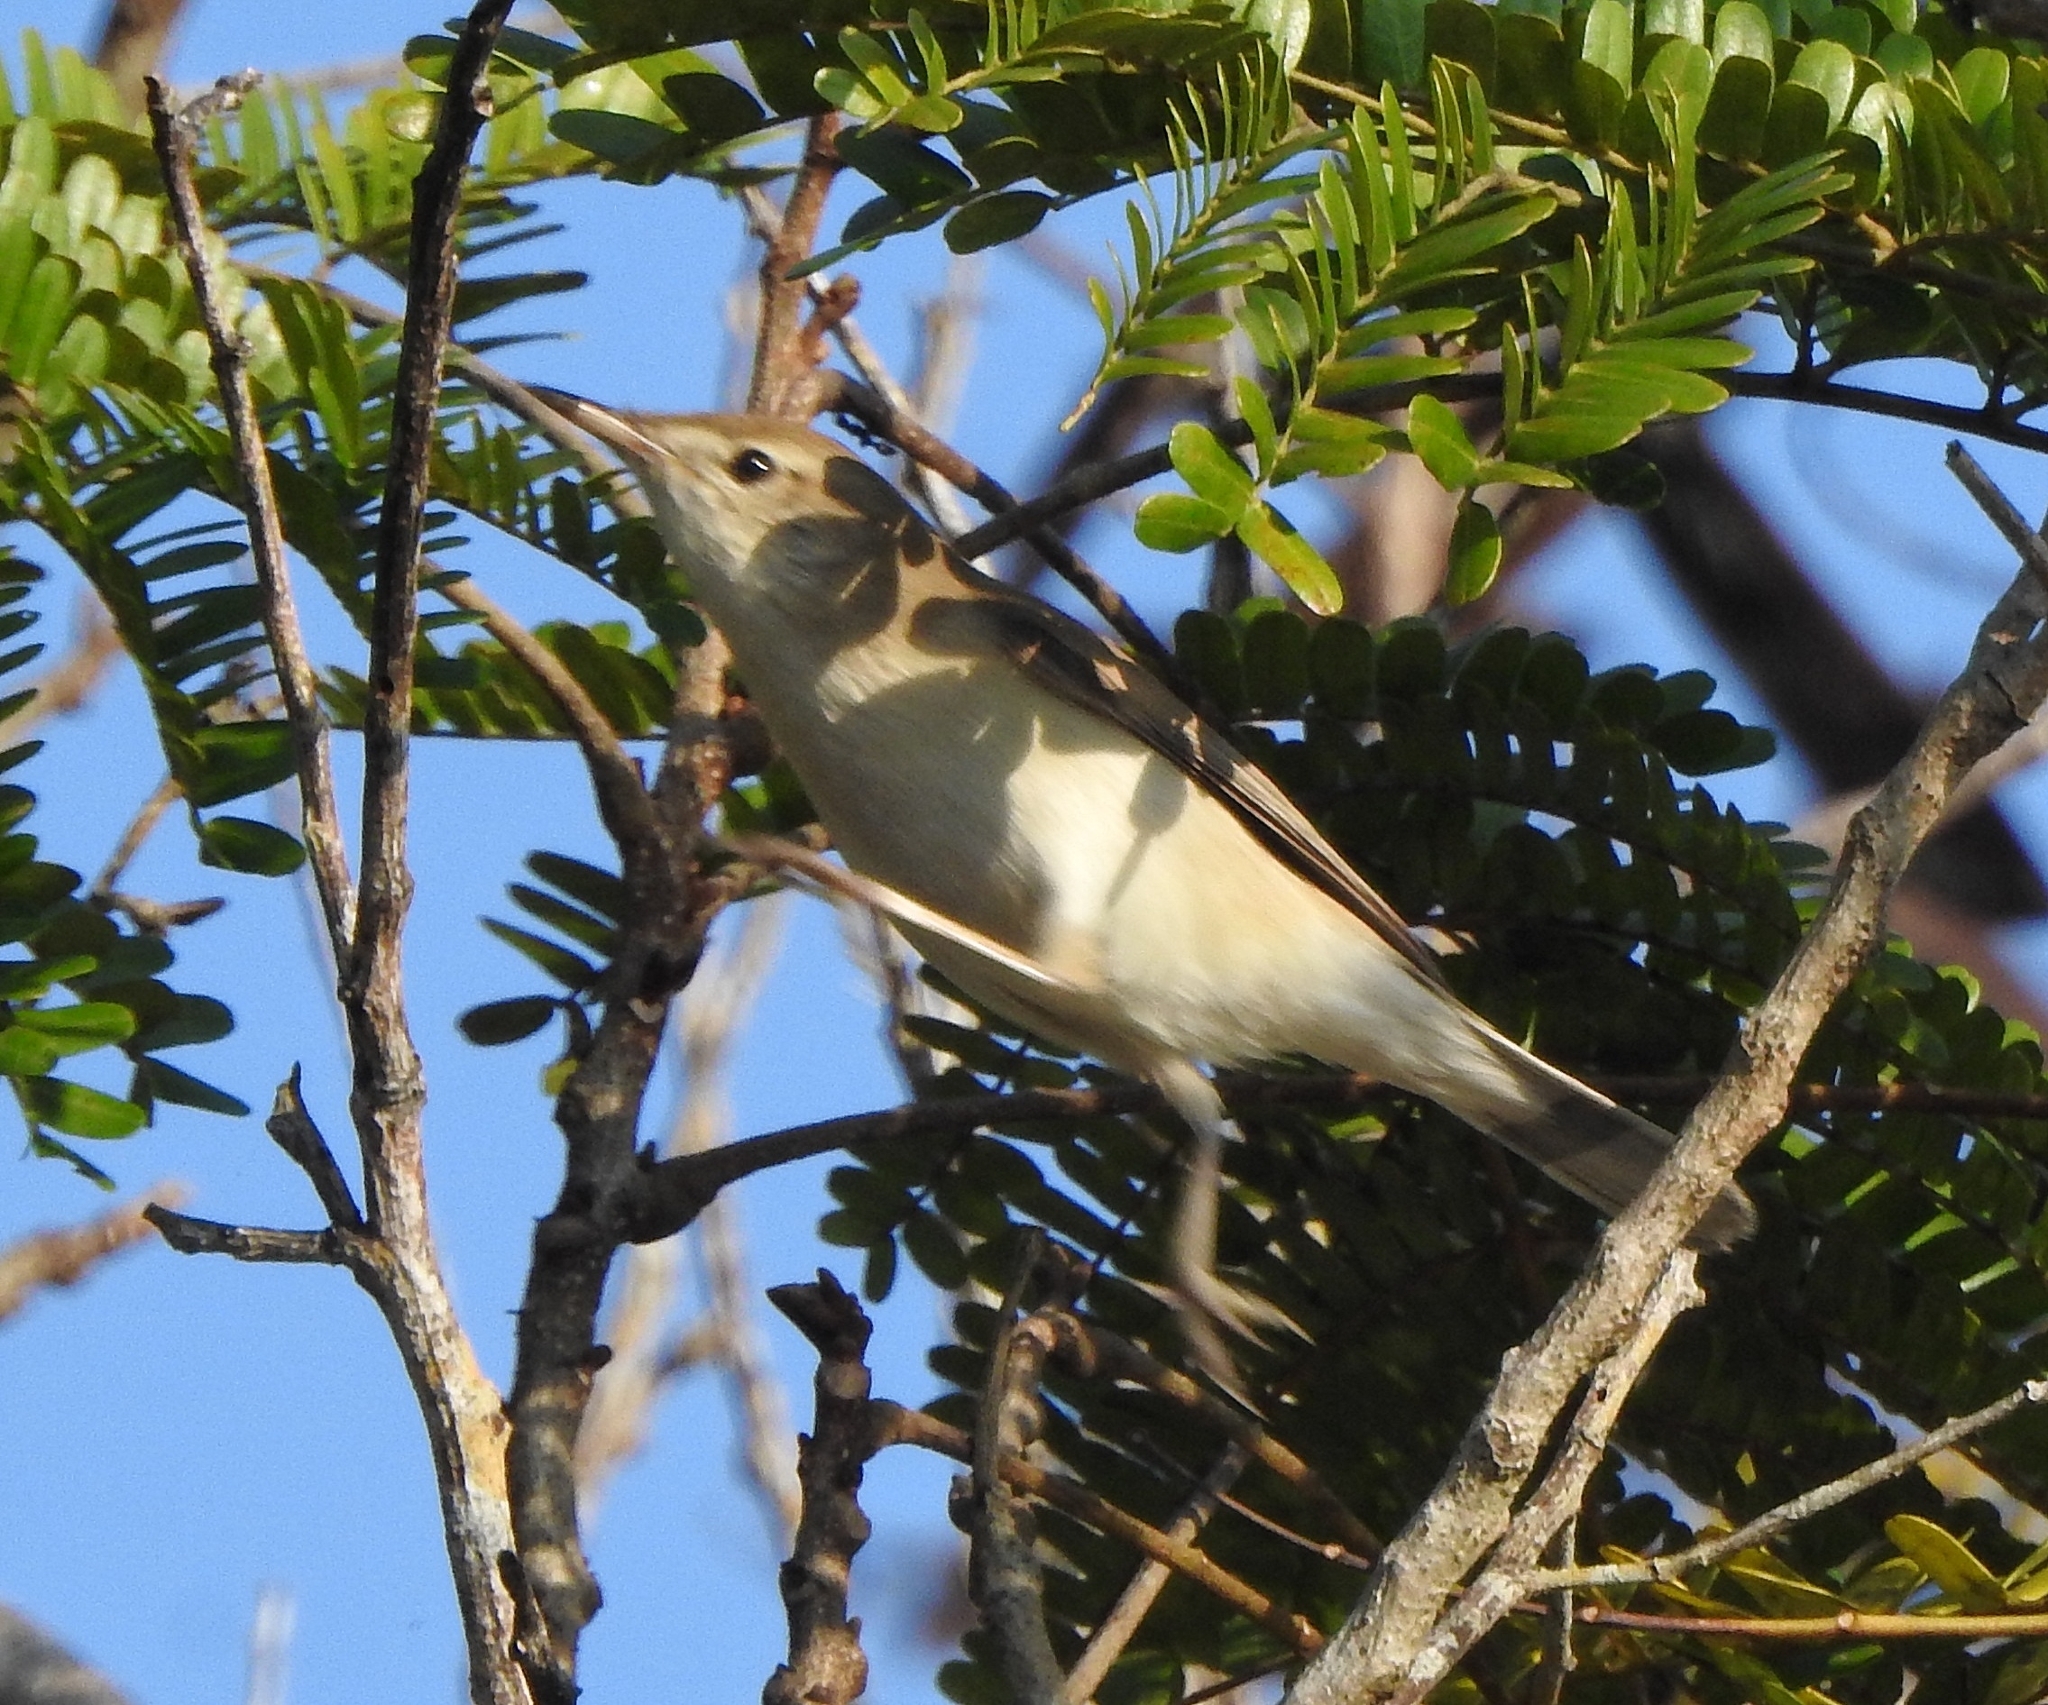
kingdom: Animalia
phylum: Chordata
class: Aves
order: Passeriformes
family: Acrocephalidae
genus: Iduna
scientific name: Iduna rama
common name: Sykes's warbler
